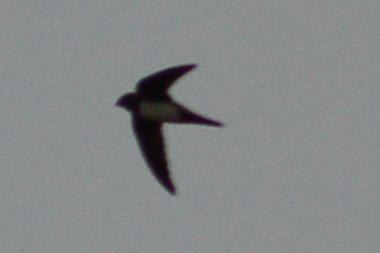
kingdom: Animalia
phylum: Chordata
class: Aves
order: Apodiformes
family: Apodidae
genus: Tachymarptis
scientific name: Tachymarptis melba
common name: Alpine swift
